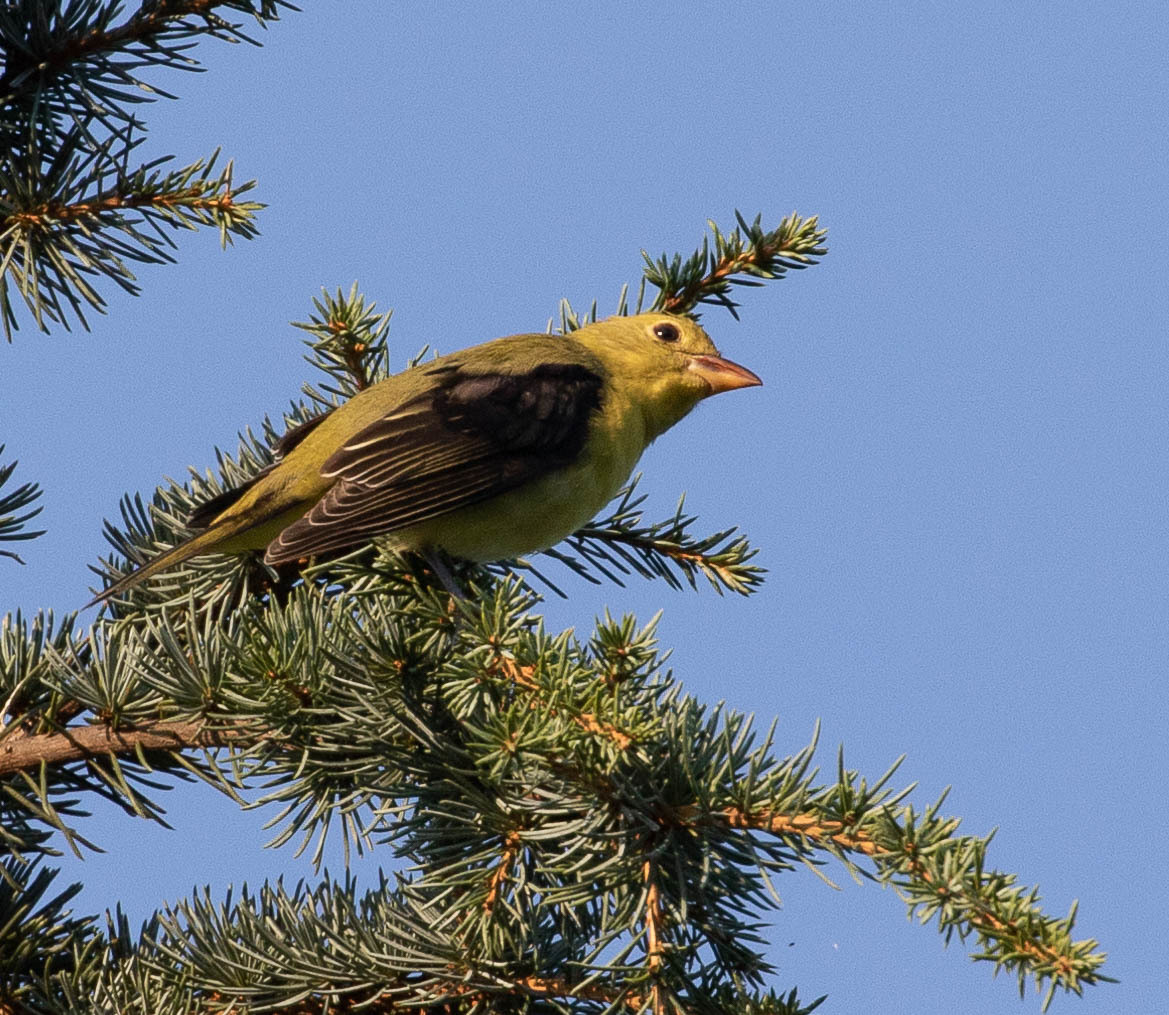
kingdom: Animalia
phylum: Chordata
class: Aves
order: Passeriformes
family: Cardinalidae
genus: Piranga
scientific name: Piranga olivacea
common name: Scarlet tanager
